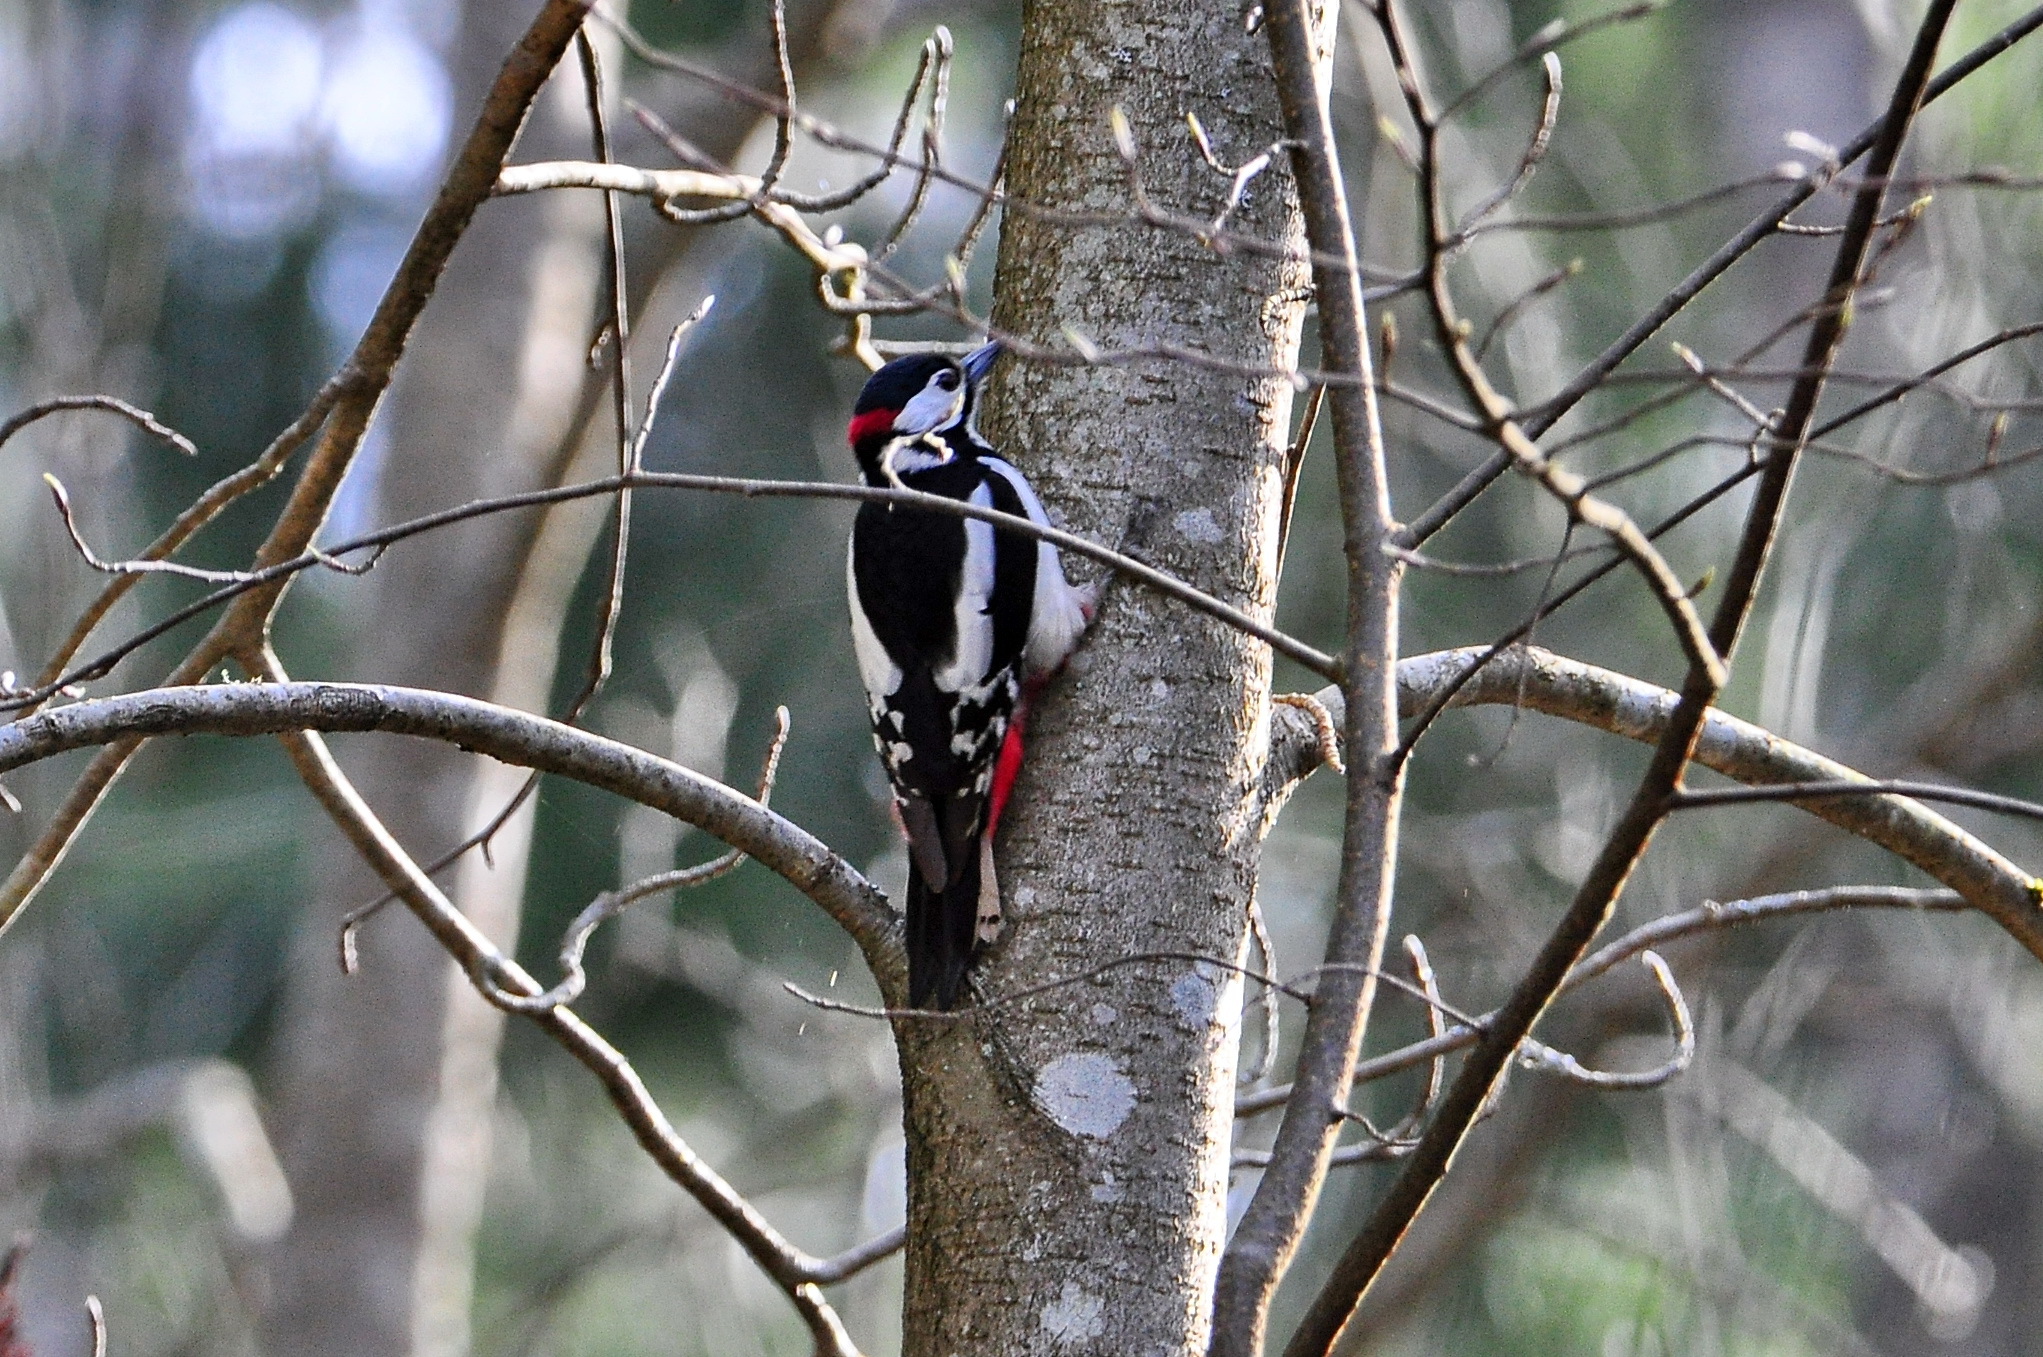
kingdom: Animalia
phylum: Chordata
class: Aves
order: Piciformes
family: Picidae
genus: Dendrocopos
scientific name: Dendrocopos major
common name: Great spotted woodpecker
